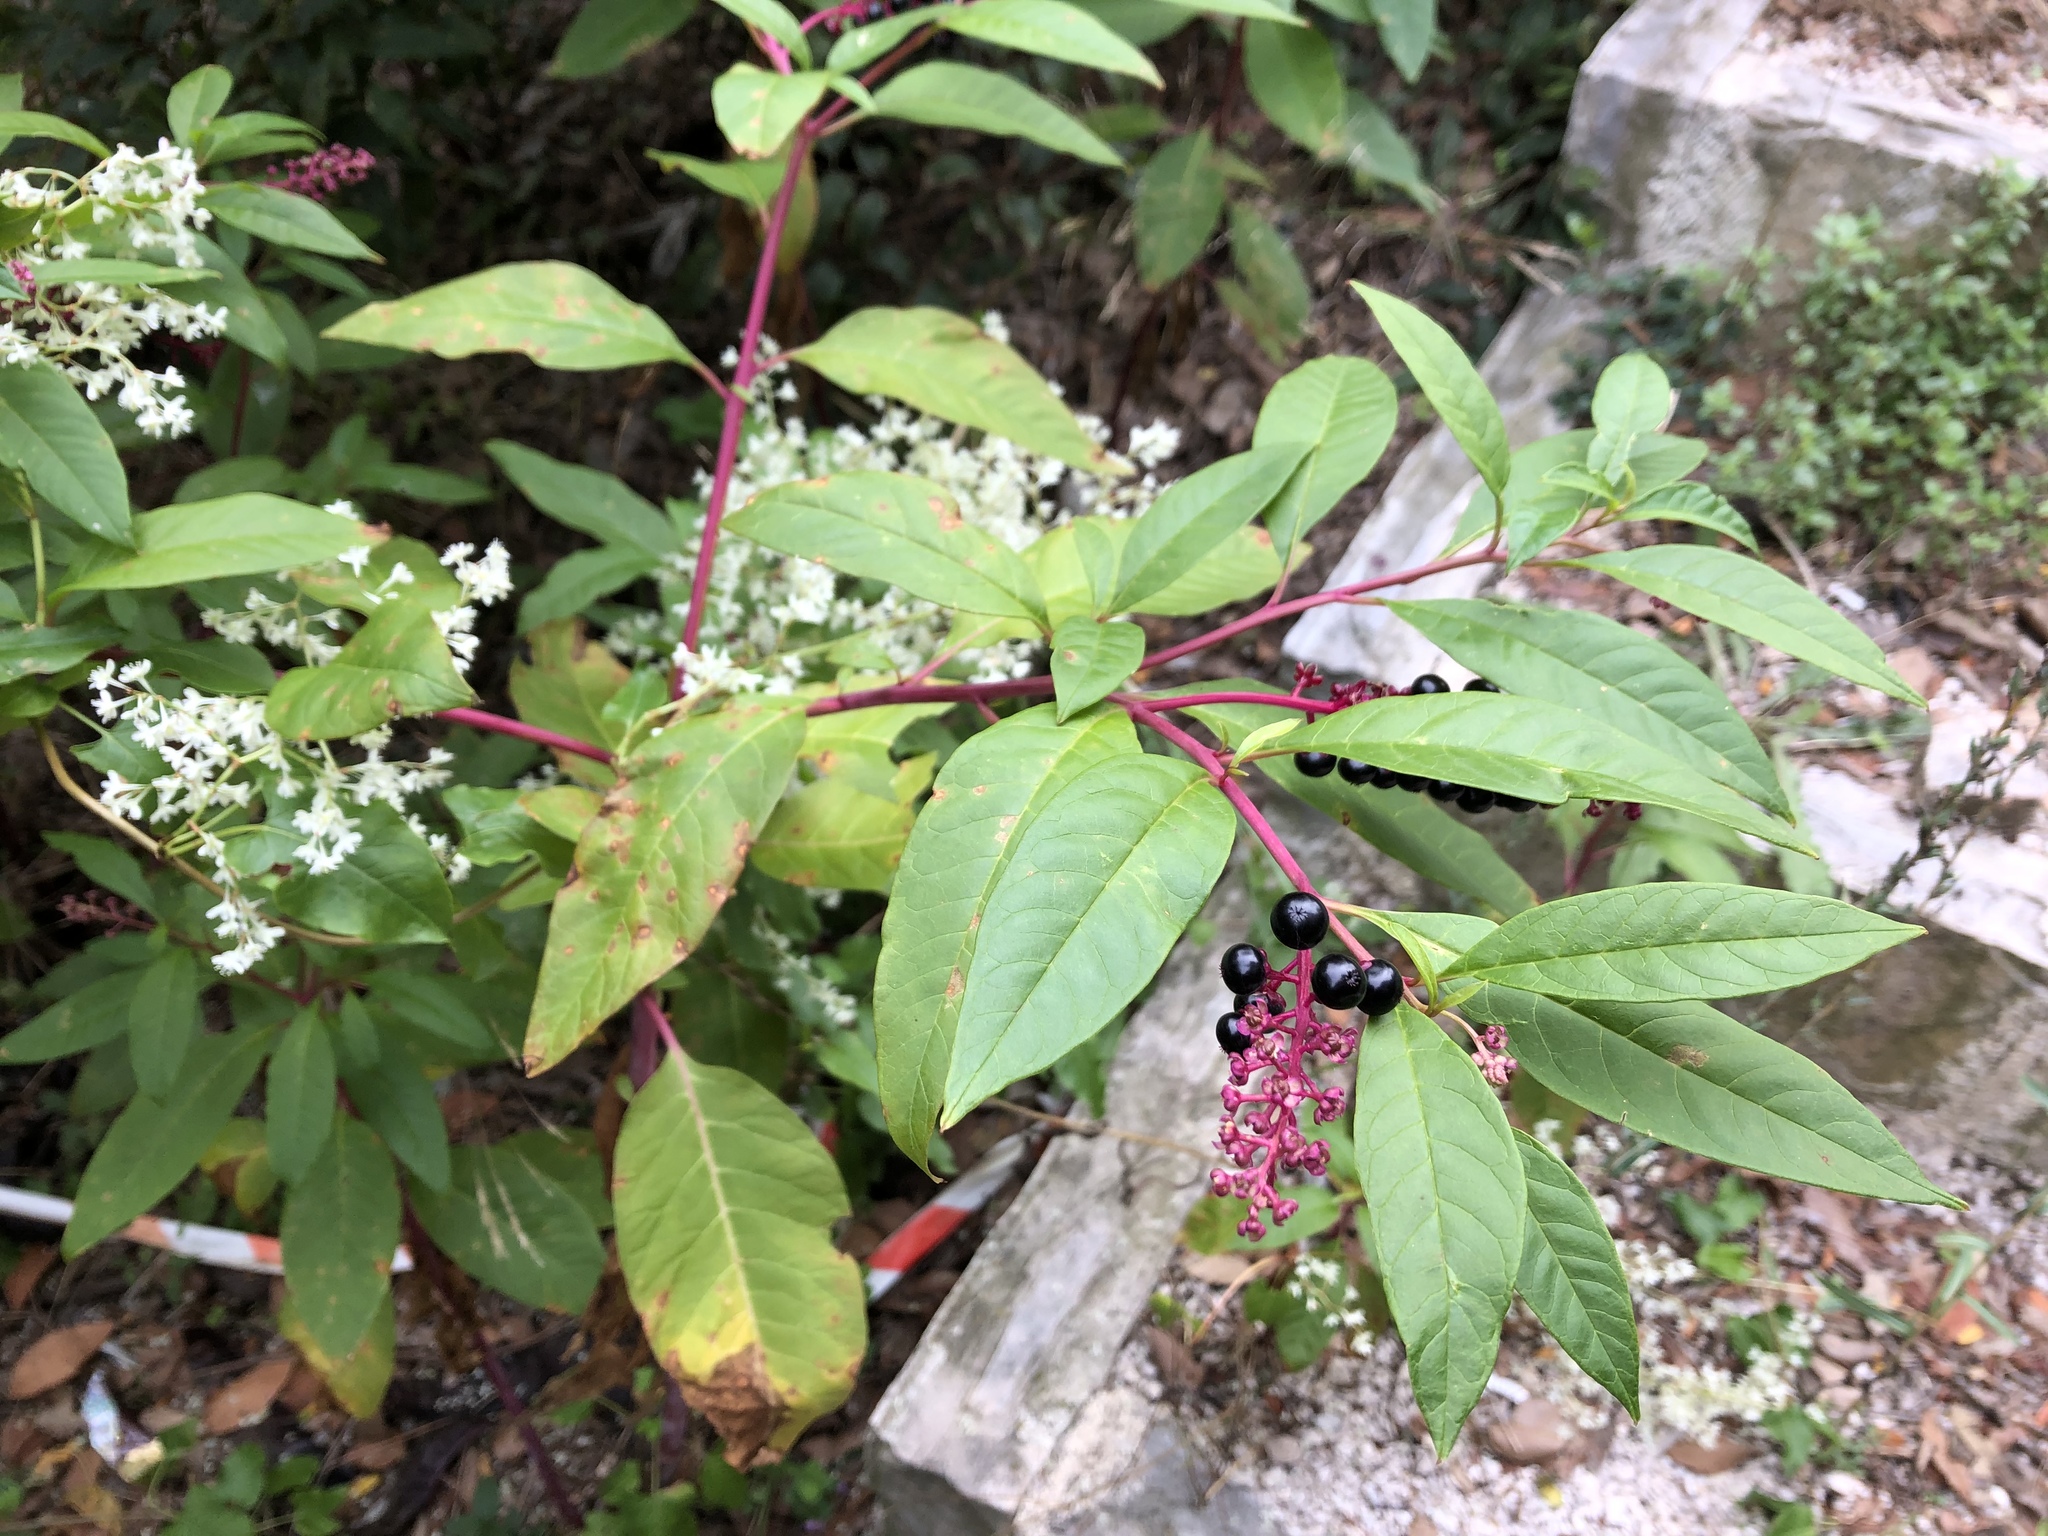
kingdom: Plantae
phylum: Tracheophyta
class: Magnoliopsida
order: Caryophyllales
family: Phytolaccaceae
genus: Phytolacca
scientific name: Phytolacca americana
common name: American pokeweed
